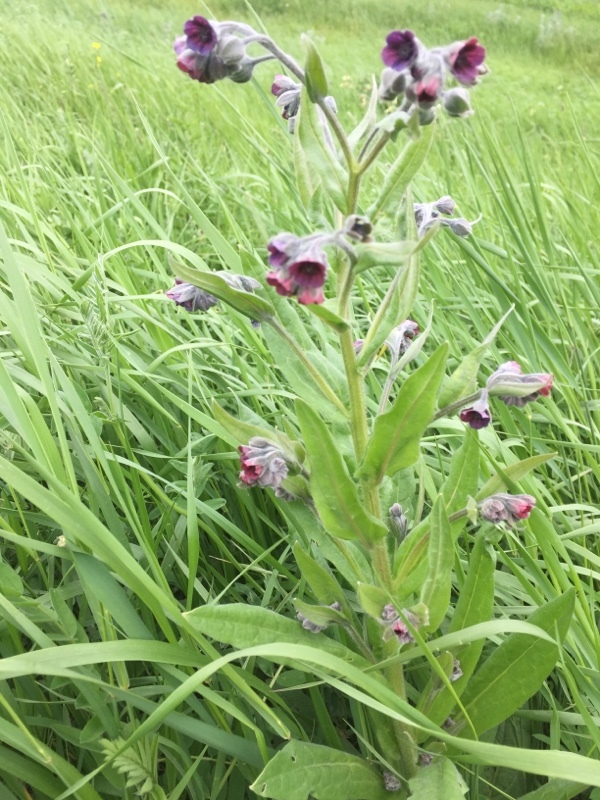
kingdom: Plantae
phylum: Tracheophyta
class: Magnoliopsida
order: Boraginales
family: Boraginaceae
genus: Cynoglossum
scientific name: Cynoglossum officinale
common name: Hound's-tongue
